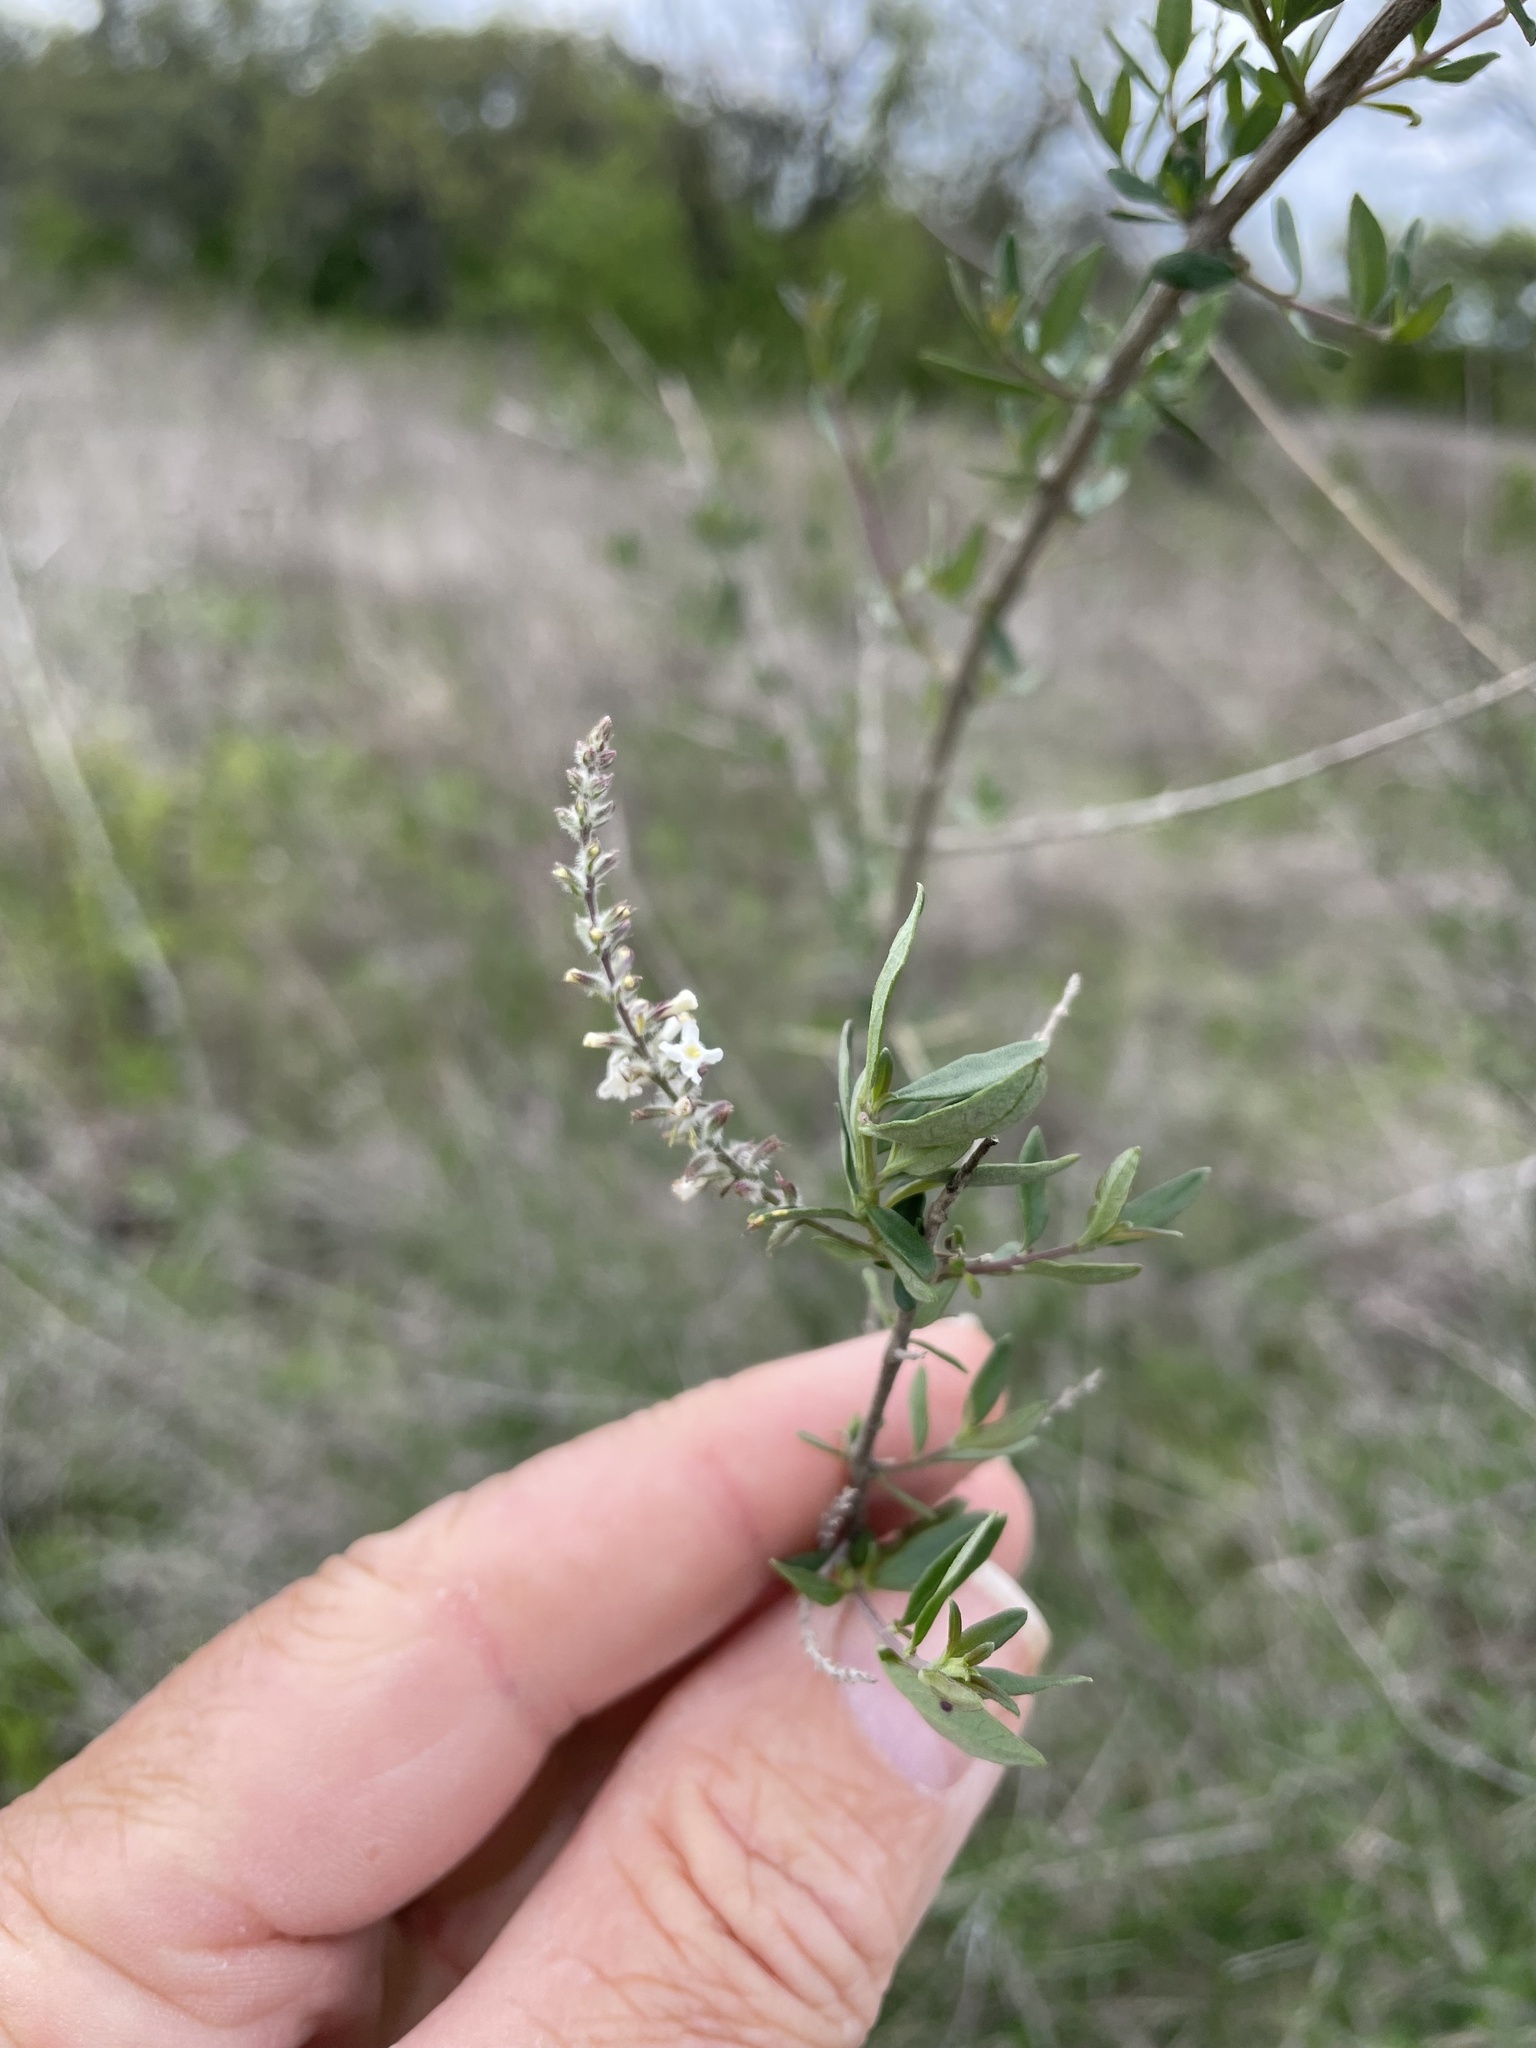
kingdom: Plantae
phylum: Tracheophyta
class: Magnoliopsida
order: Lamiales
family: Verbenaceae
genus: Aloysia
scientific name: Aloysia gratissima
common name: Common bee-brush
